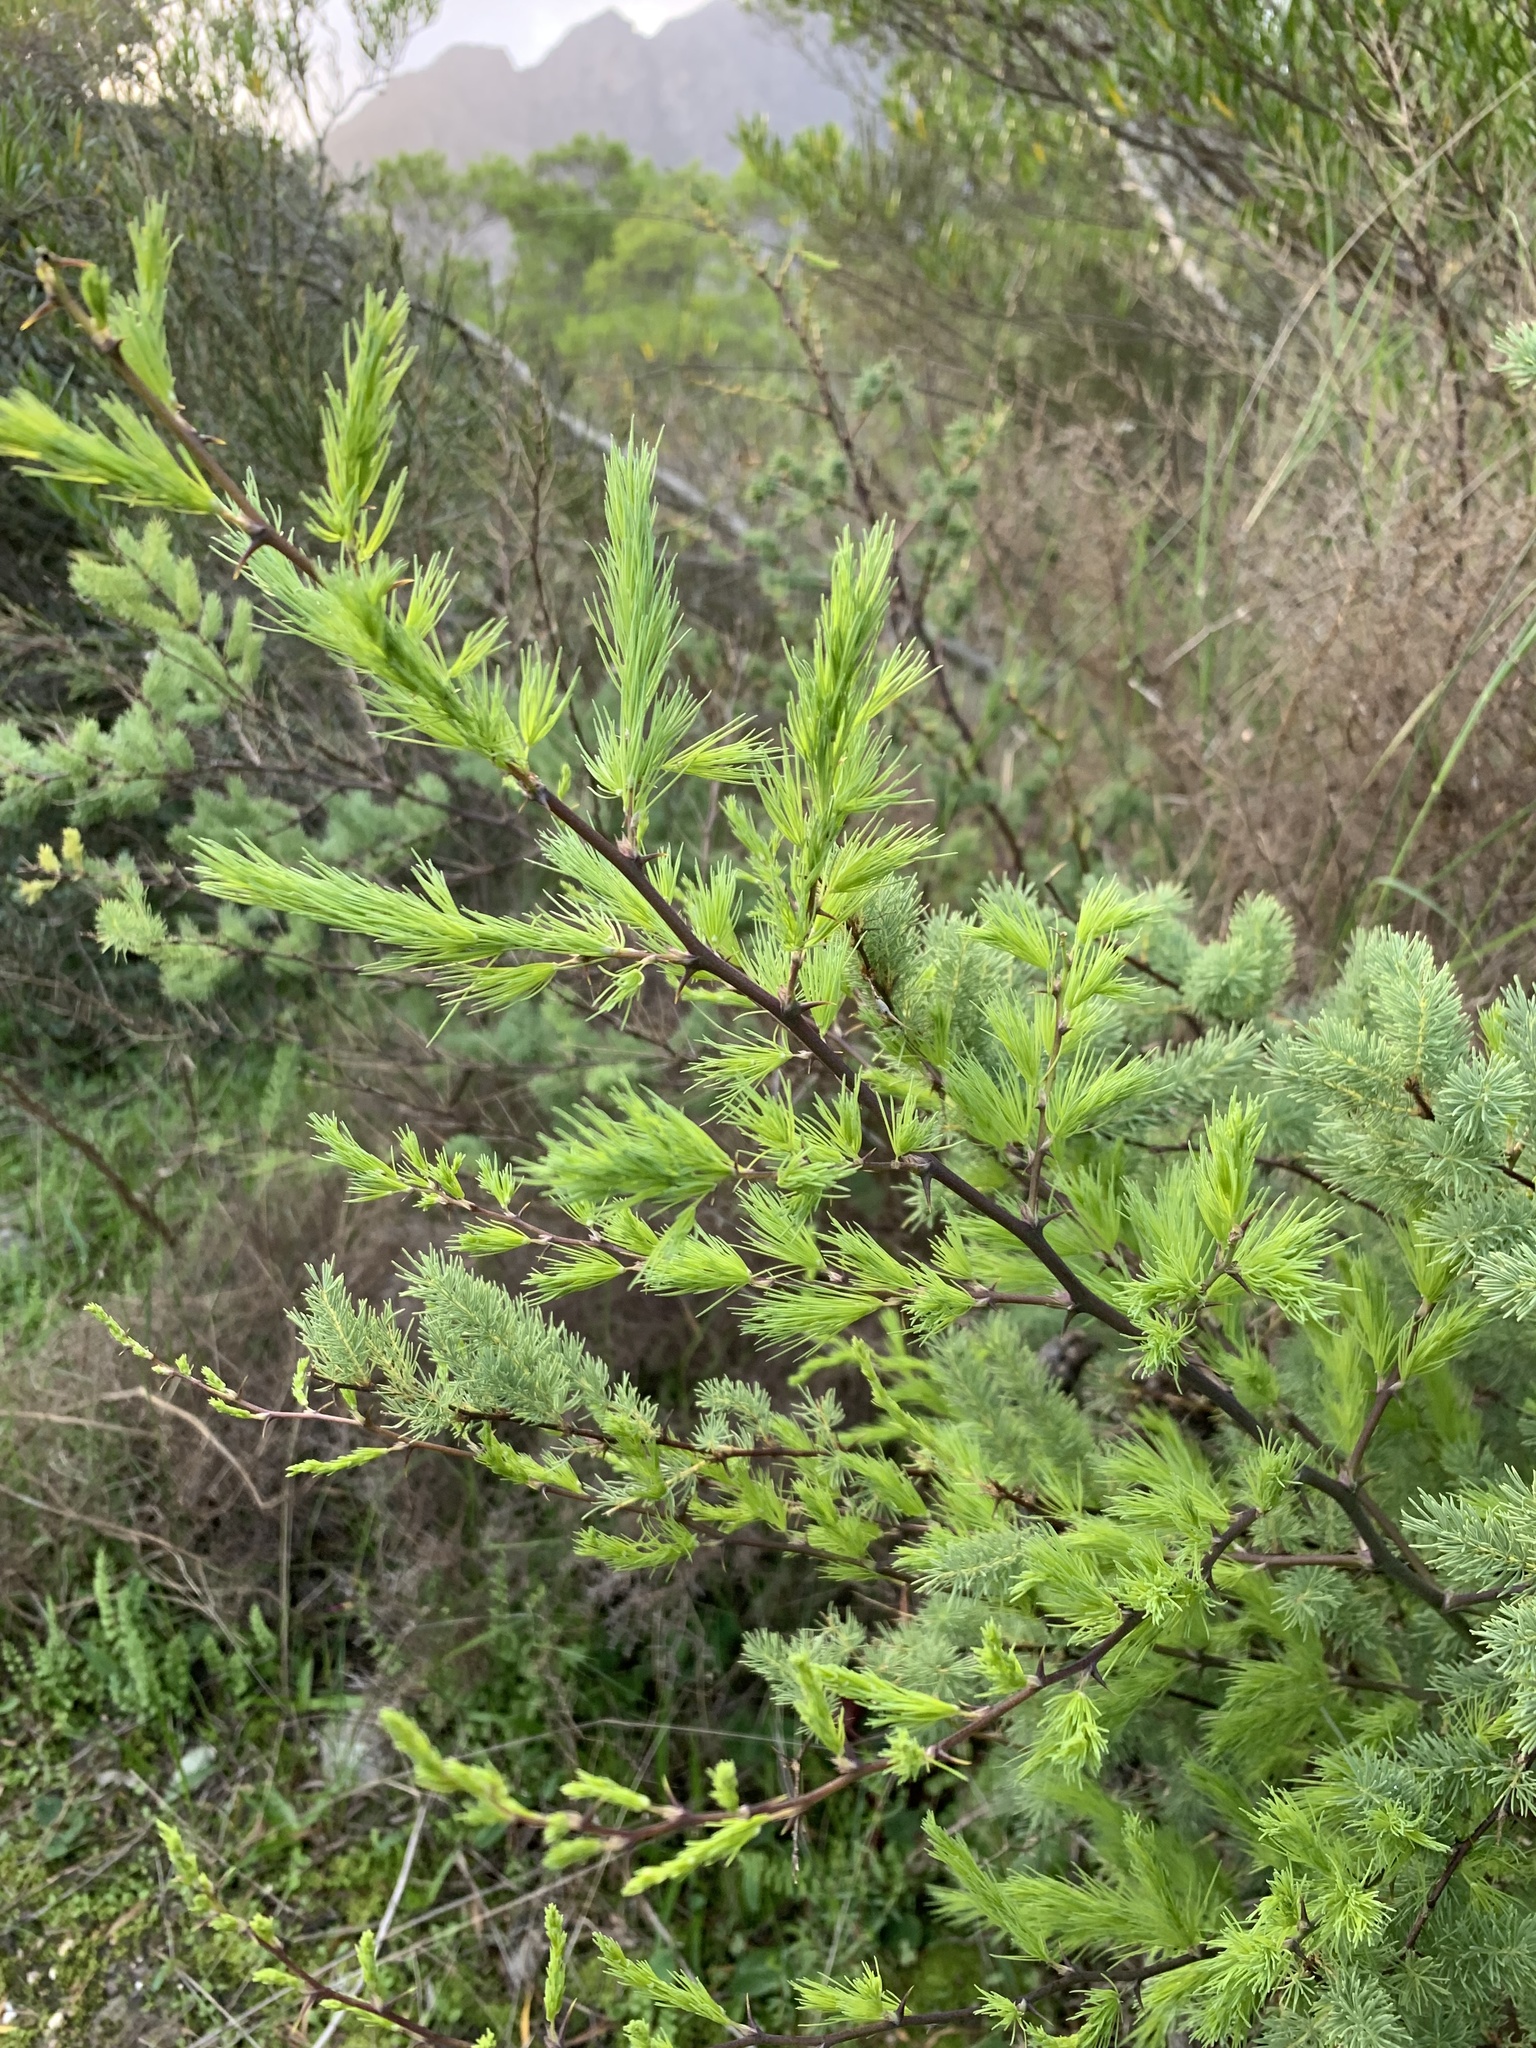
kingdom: Plantae
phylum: Tracheophyta
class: Liliopsida
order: Asparagales
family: Asparagaceae
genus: Asparagus
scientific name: Asparagus rubicundus
